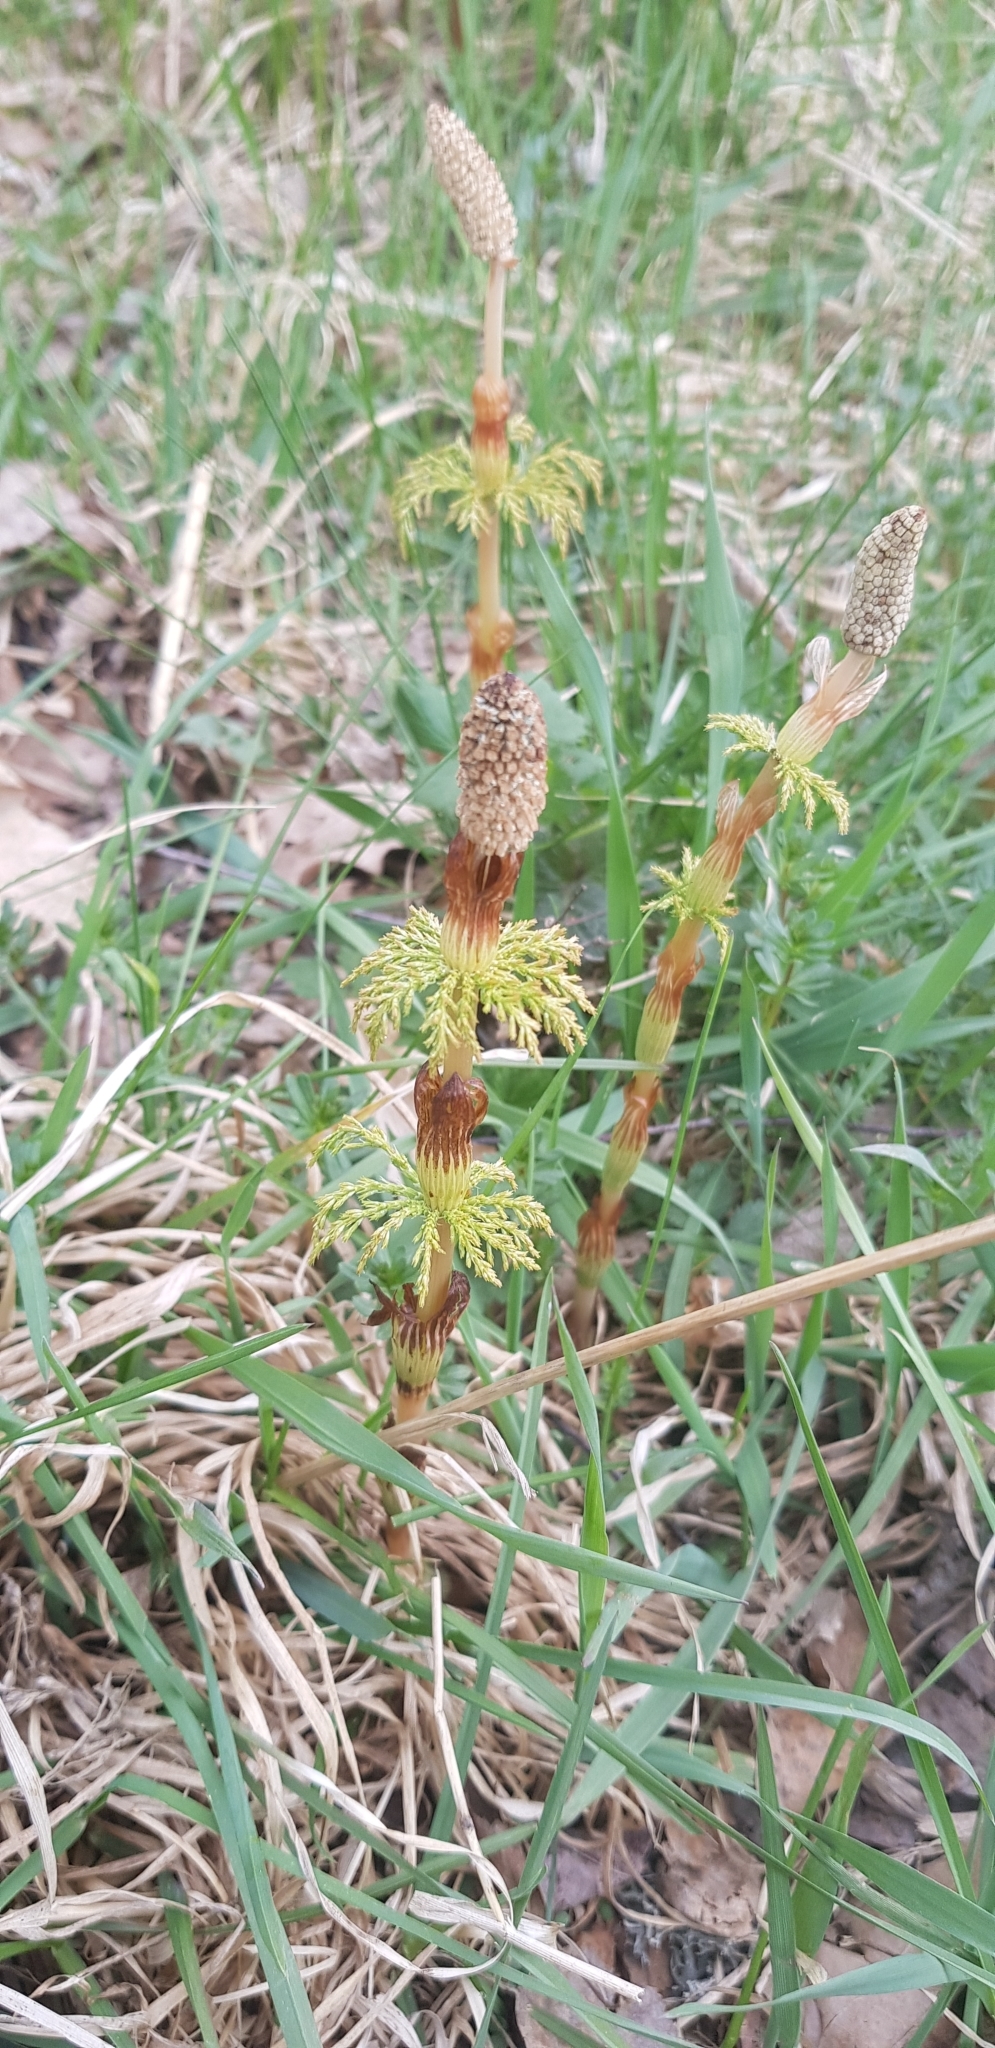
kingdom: Plantae
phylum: Tracheophyta
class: Polypodiopsida
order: Equisetales
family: Equisetaceae
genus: Equisetum
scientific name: Equisetum sylvaticum
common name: Wood horsetail
